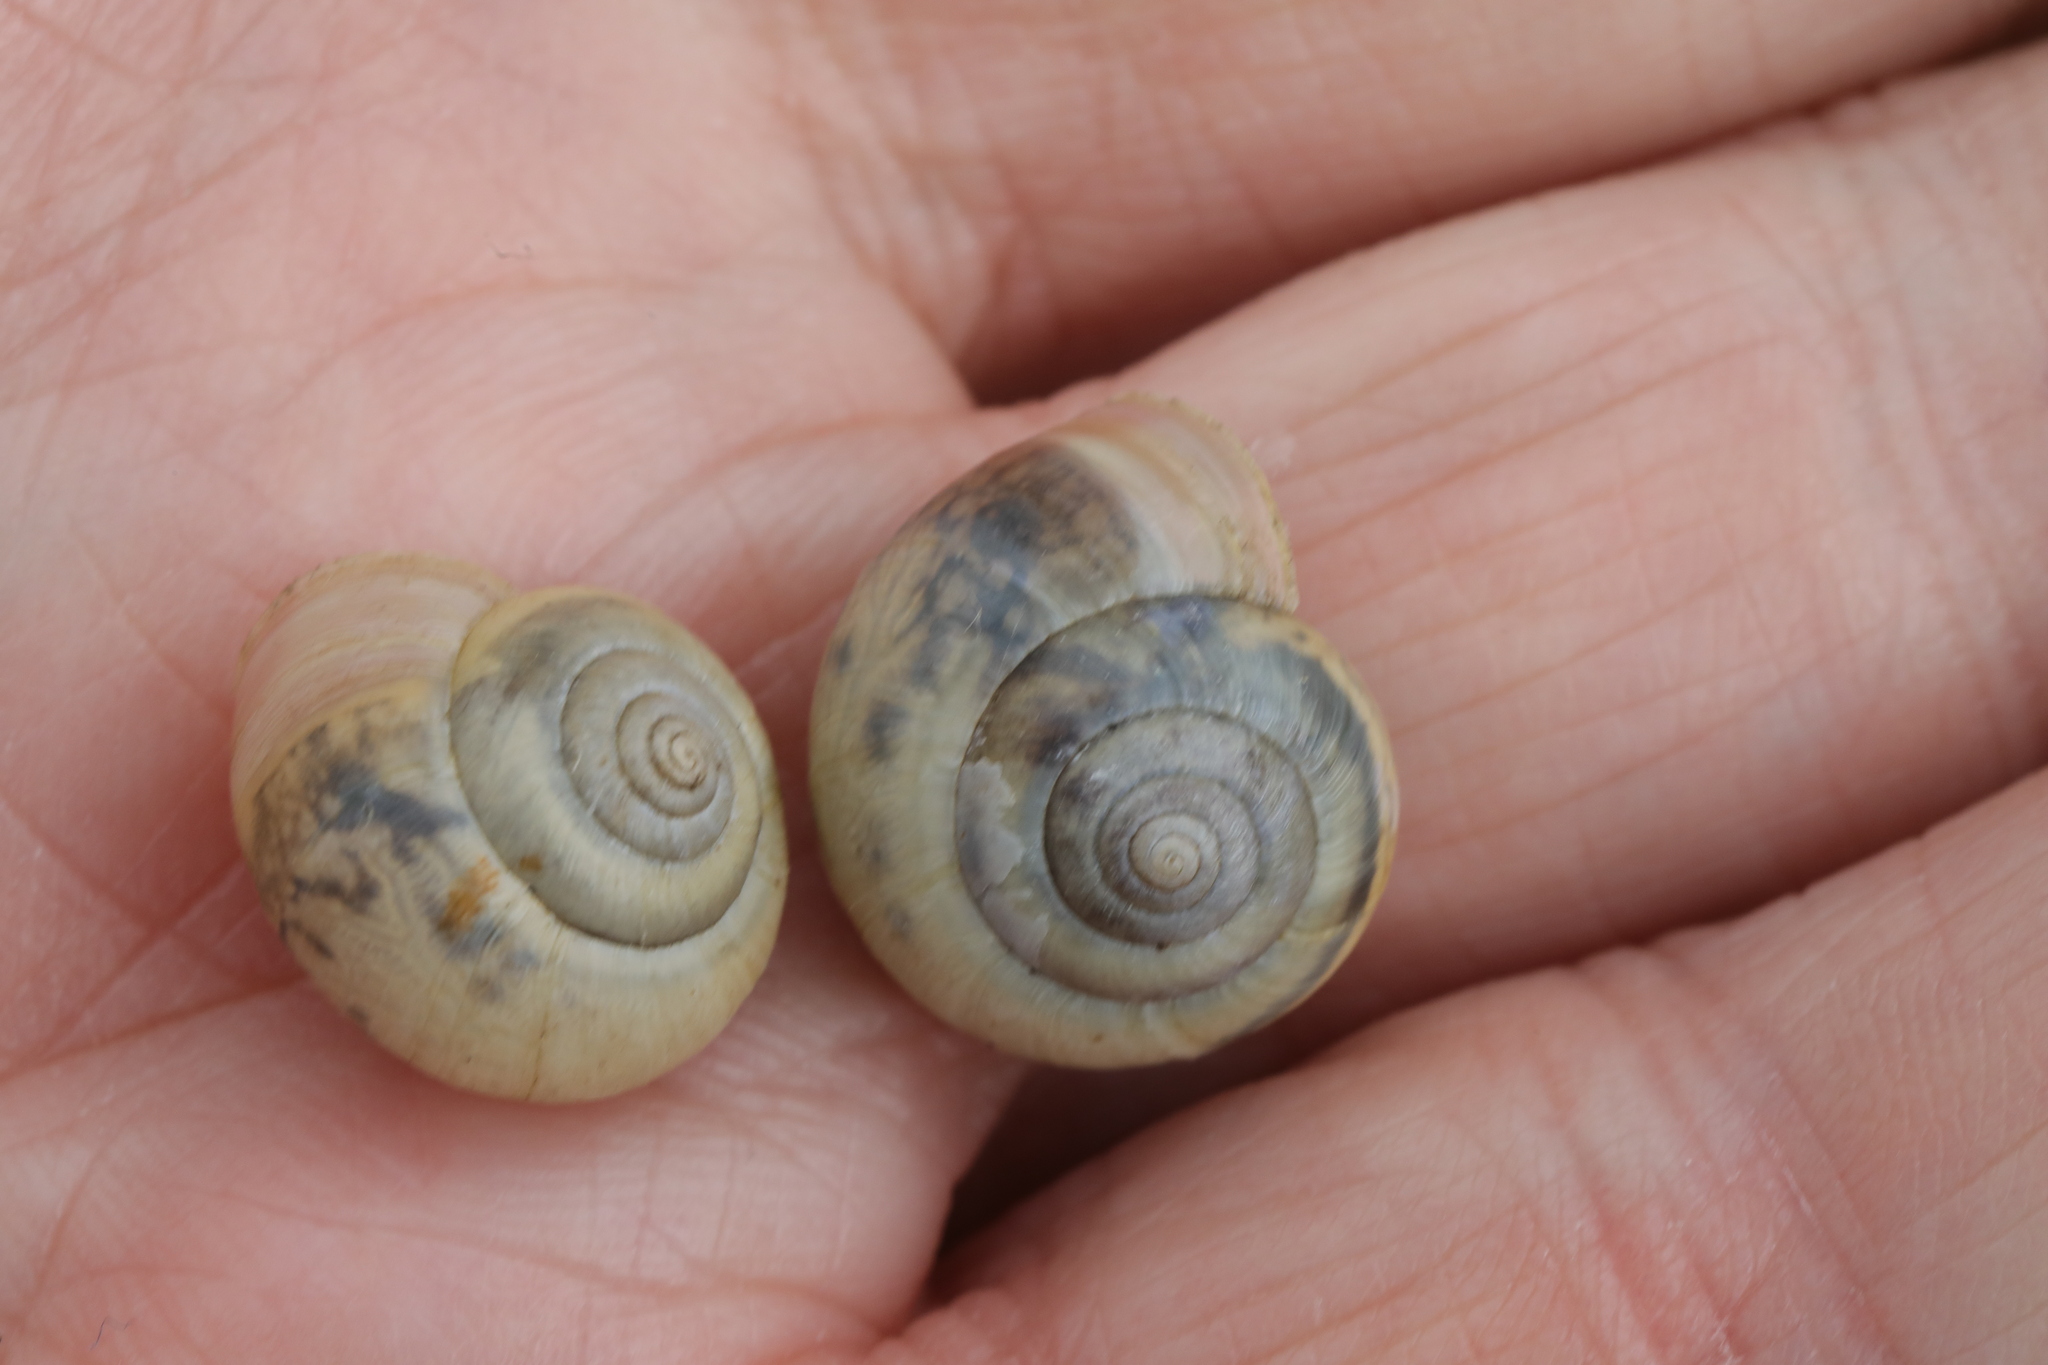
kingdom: Animalia
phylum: Mollusca
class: Gastropoda
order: Stylommatophora
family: Hygromiidae
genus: Monacha
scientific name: Monacha cantiana
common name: Kentish snail
